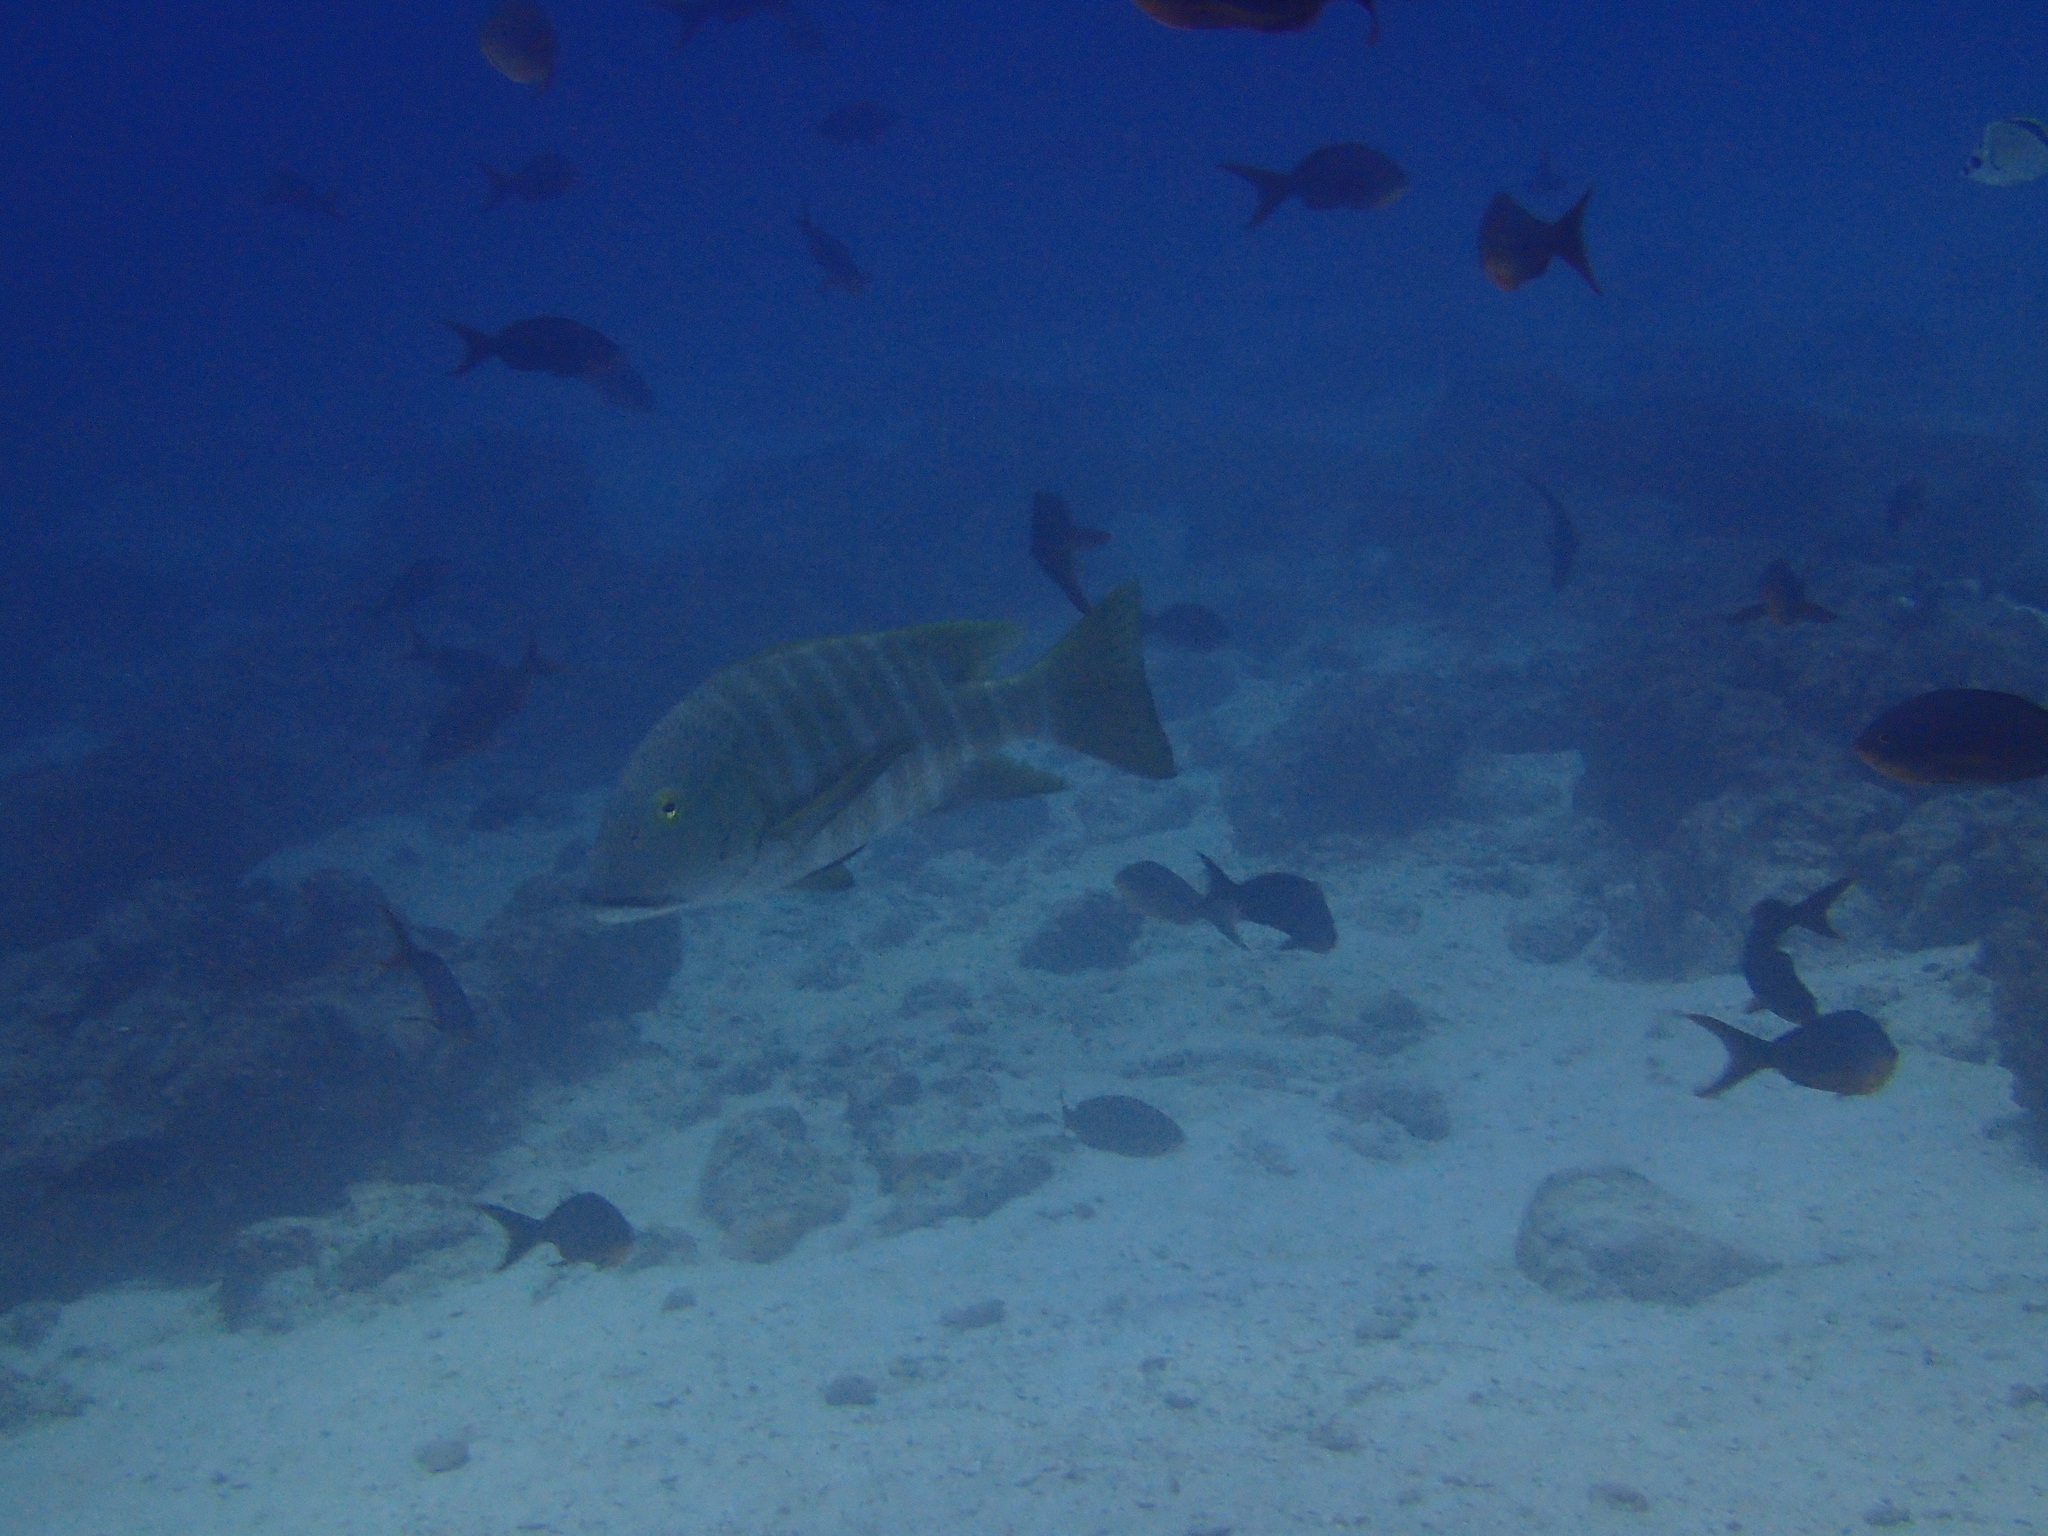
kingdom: Animalia
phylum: Chordata
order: Perciformes
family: Lutjanidae
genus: Hoplopagrus
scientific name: Hoplopagrus guentherii
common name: Barred pargo
